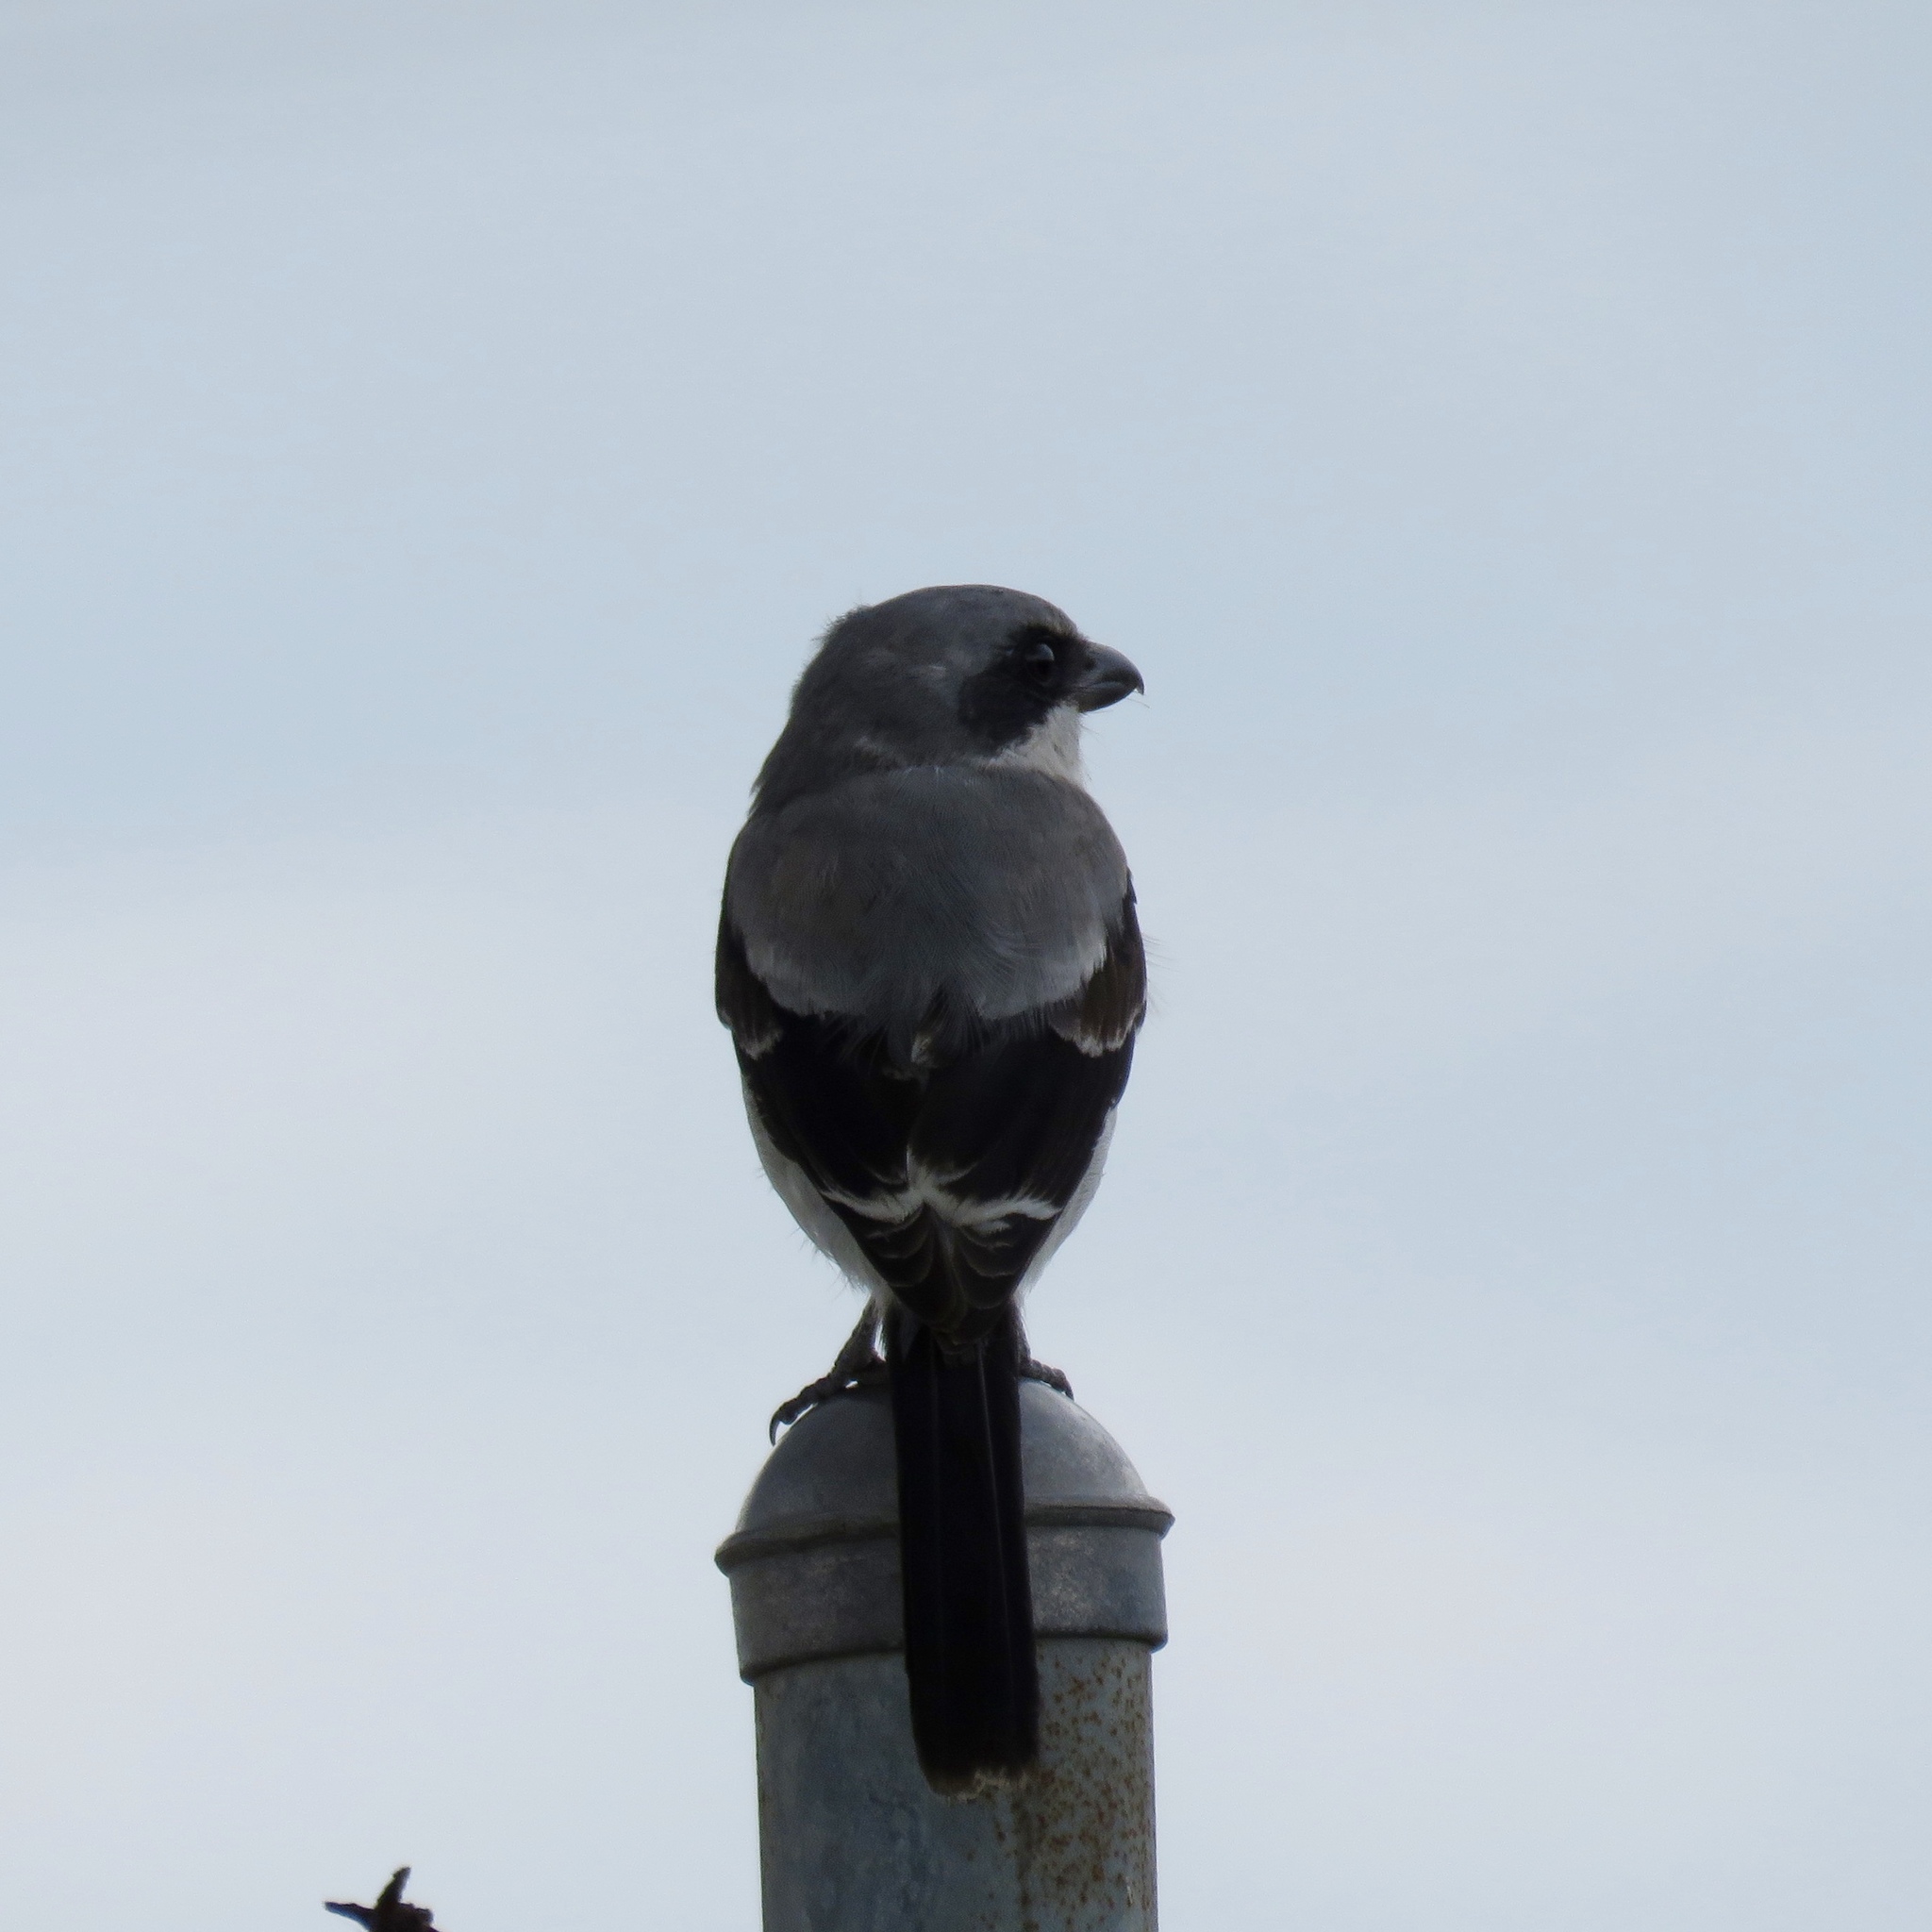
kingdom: Animalia
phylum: Chordata
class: Aves
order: Passeriformes
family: Laniidae
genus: Lanius
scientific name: Lanius ludovicianus
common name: Loggerhead shrike
